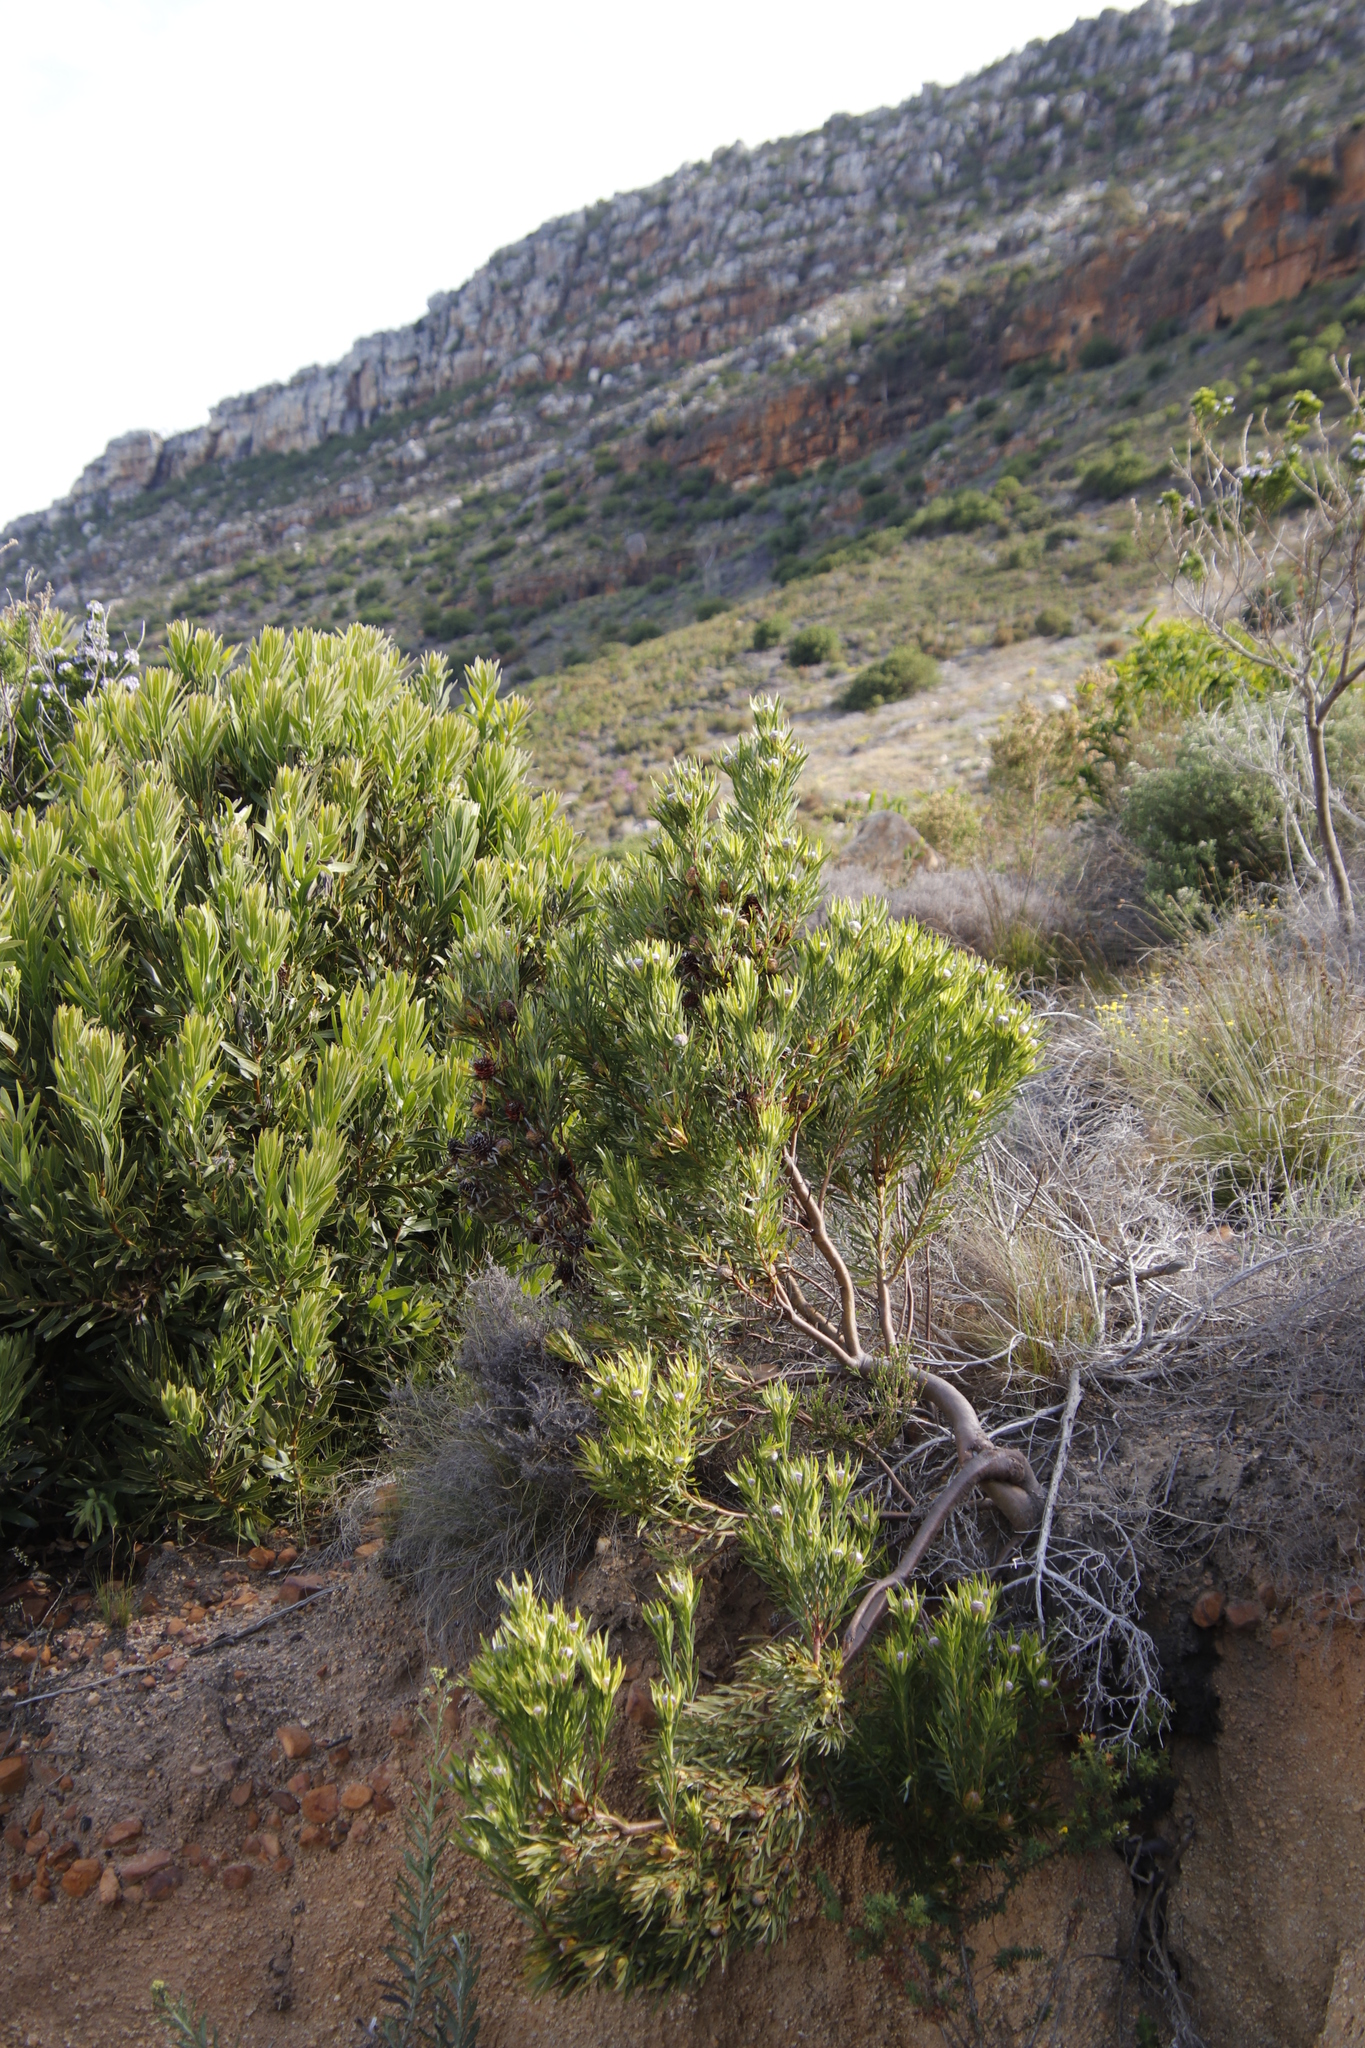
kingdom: Plantae
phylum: Tracheophyta
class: Magnoliopsida
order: Proteales
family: Proteaceae
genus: Leucadendron
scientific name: Leucadendron xanthoconus
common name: Sickle-leaf conebush
